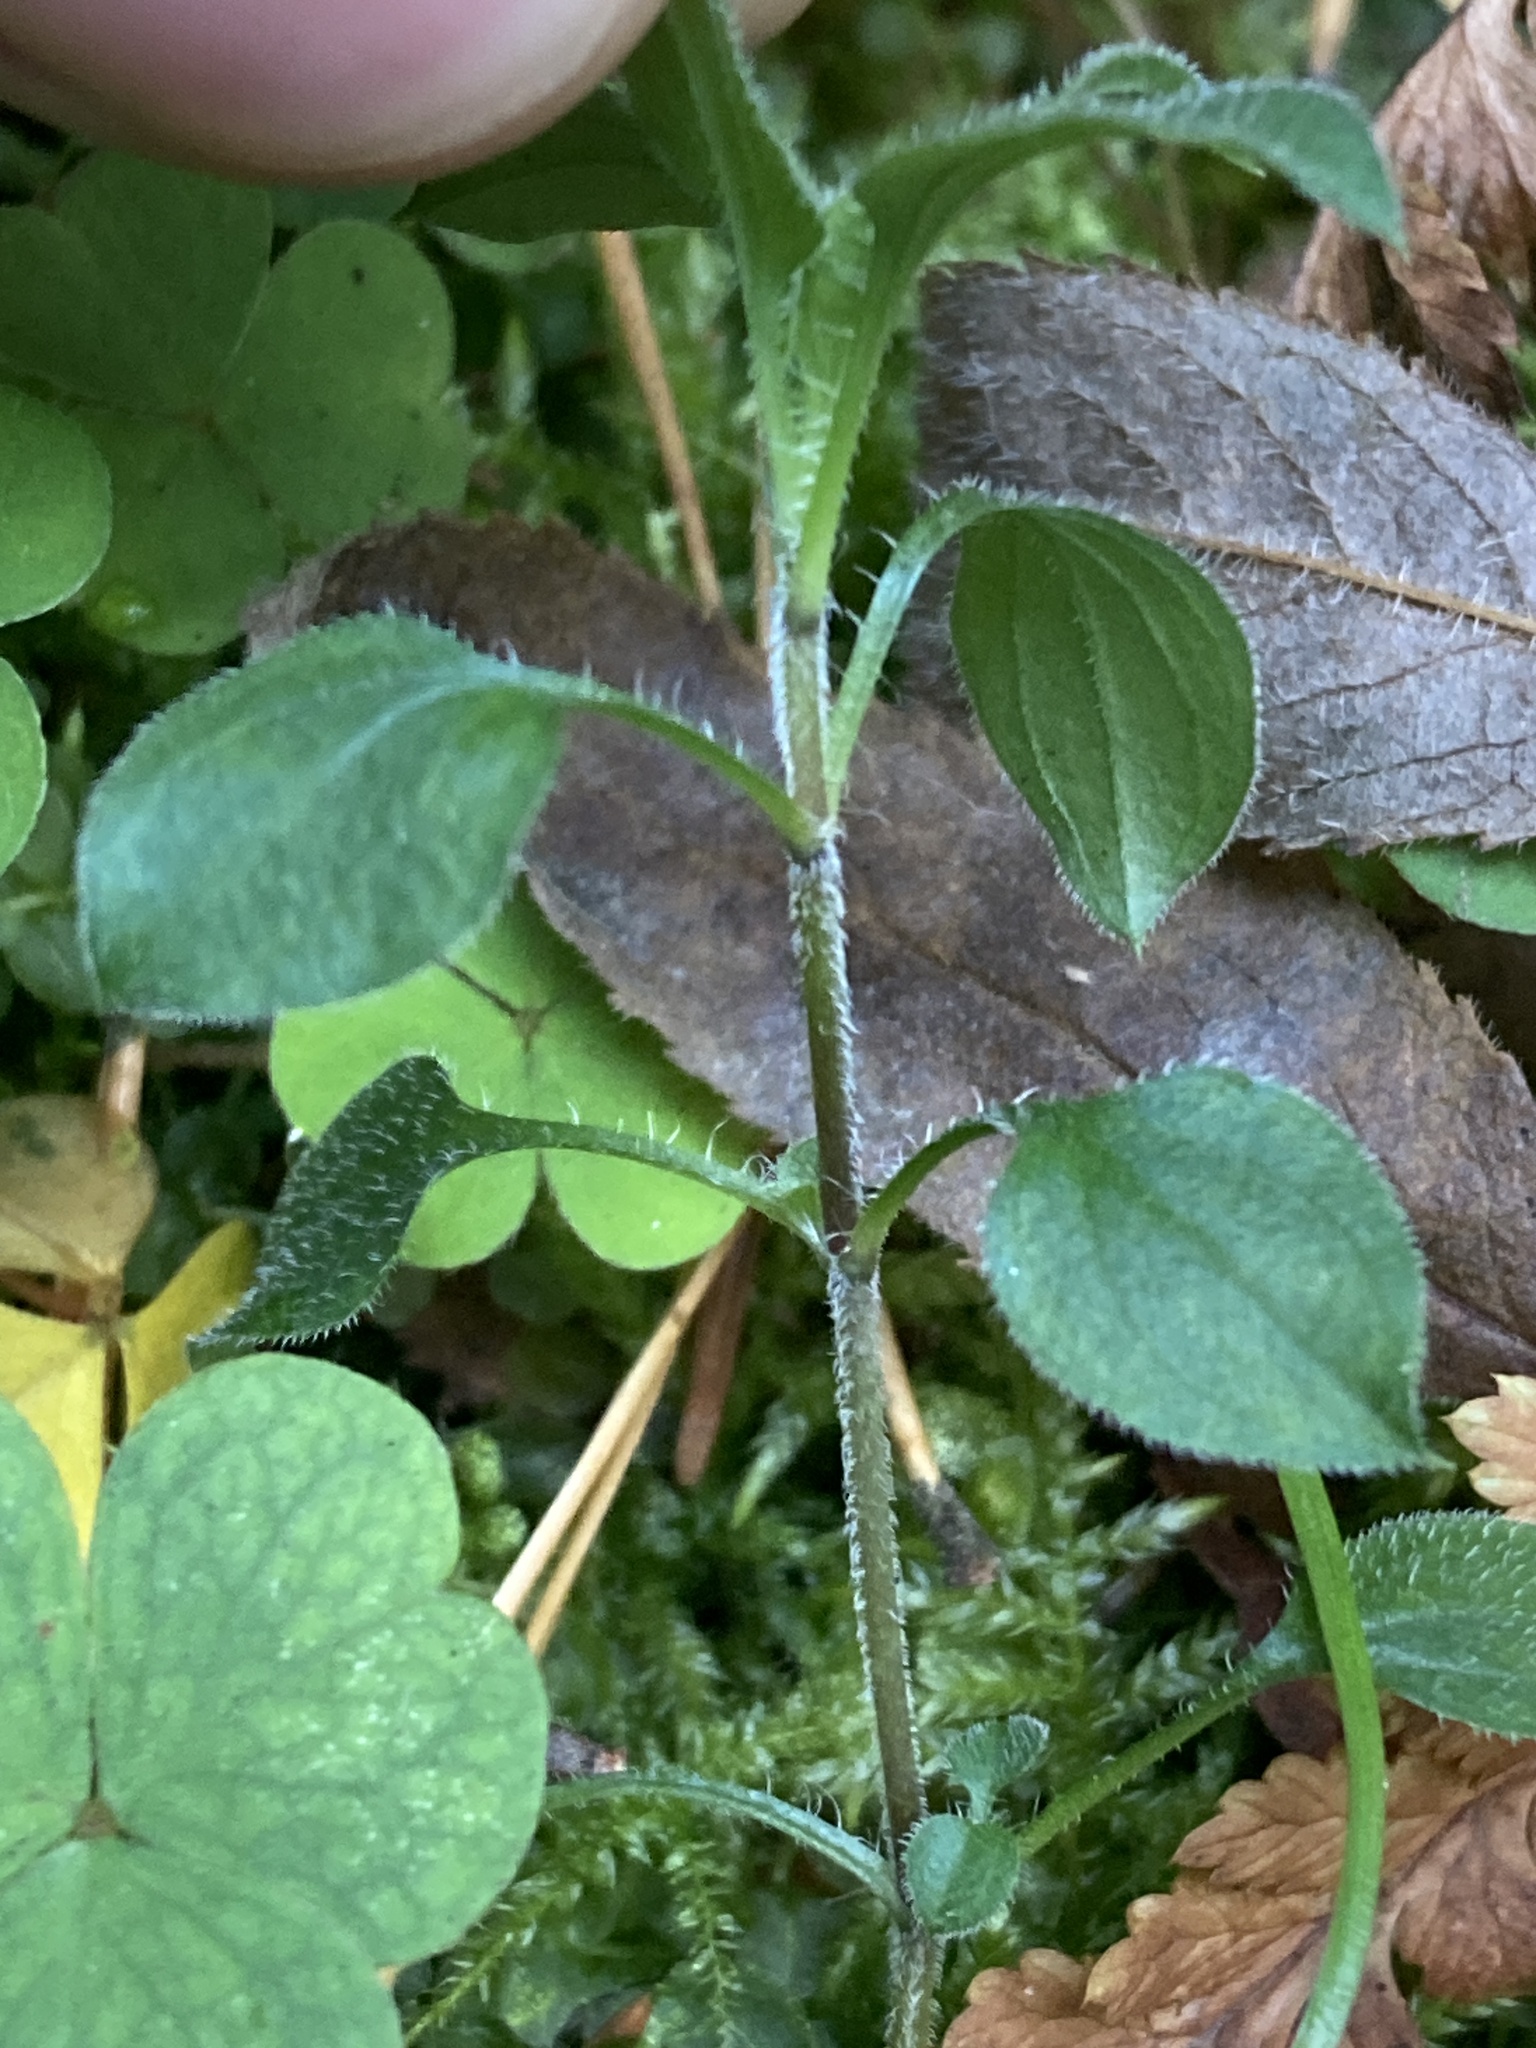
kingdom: Plantae
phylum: Tracheophyta
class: Magnoliopsida
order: Caryophyllales
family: Caryophyllaceae
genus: Moehringia
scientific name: Moehringia trinervia
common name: Three-nerved sandwort
